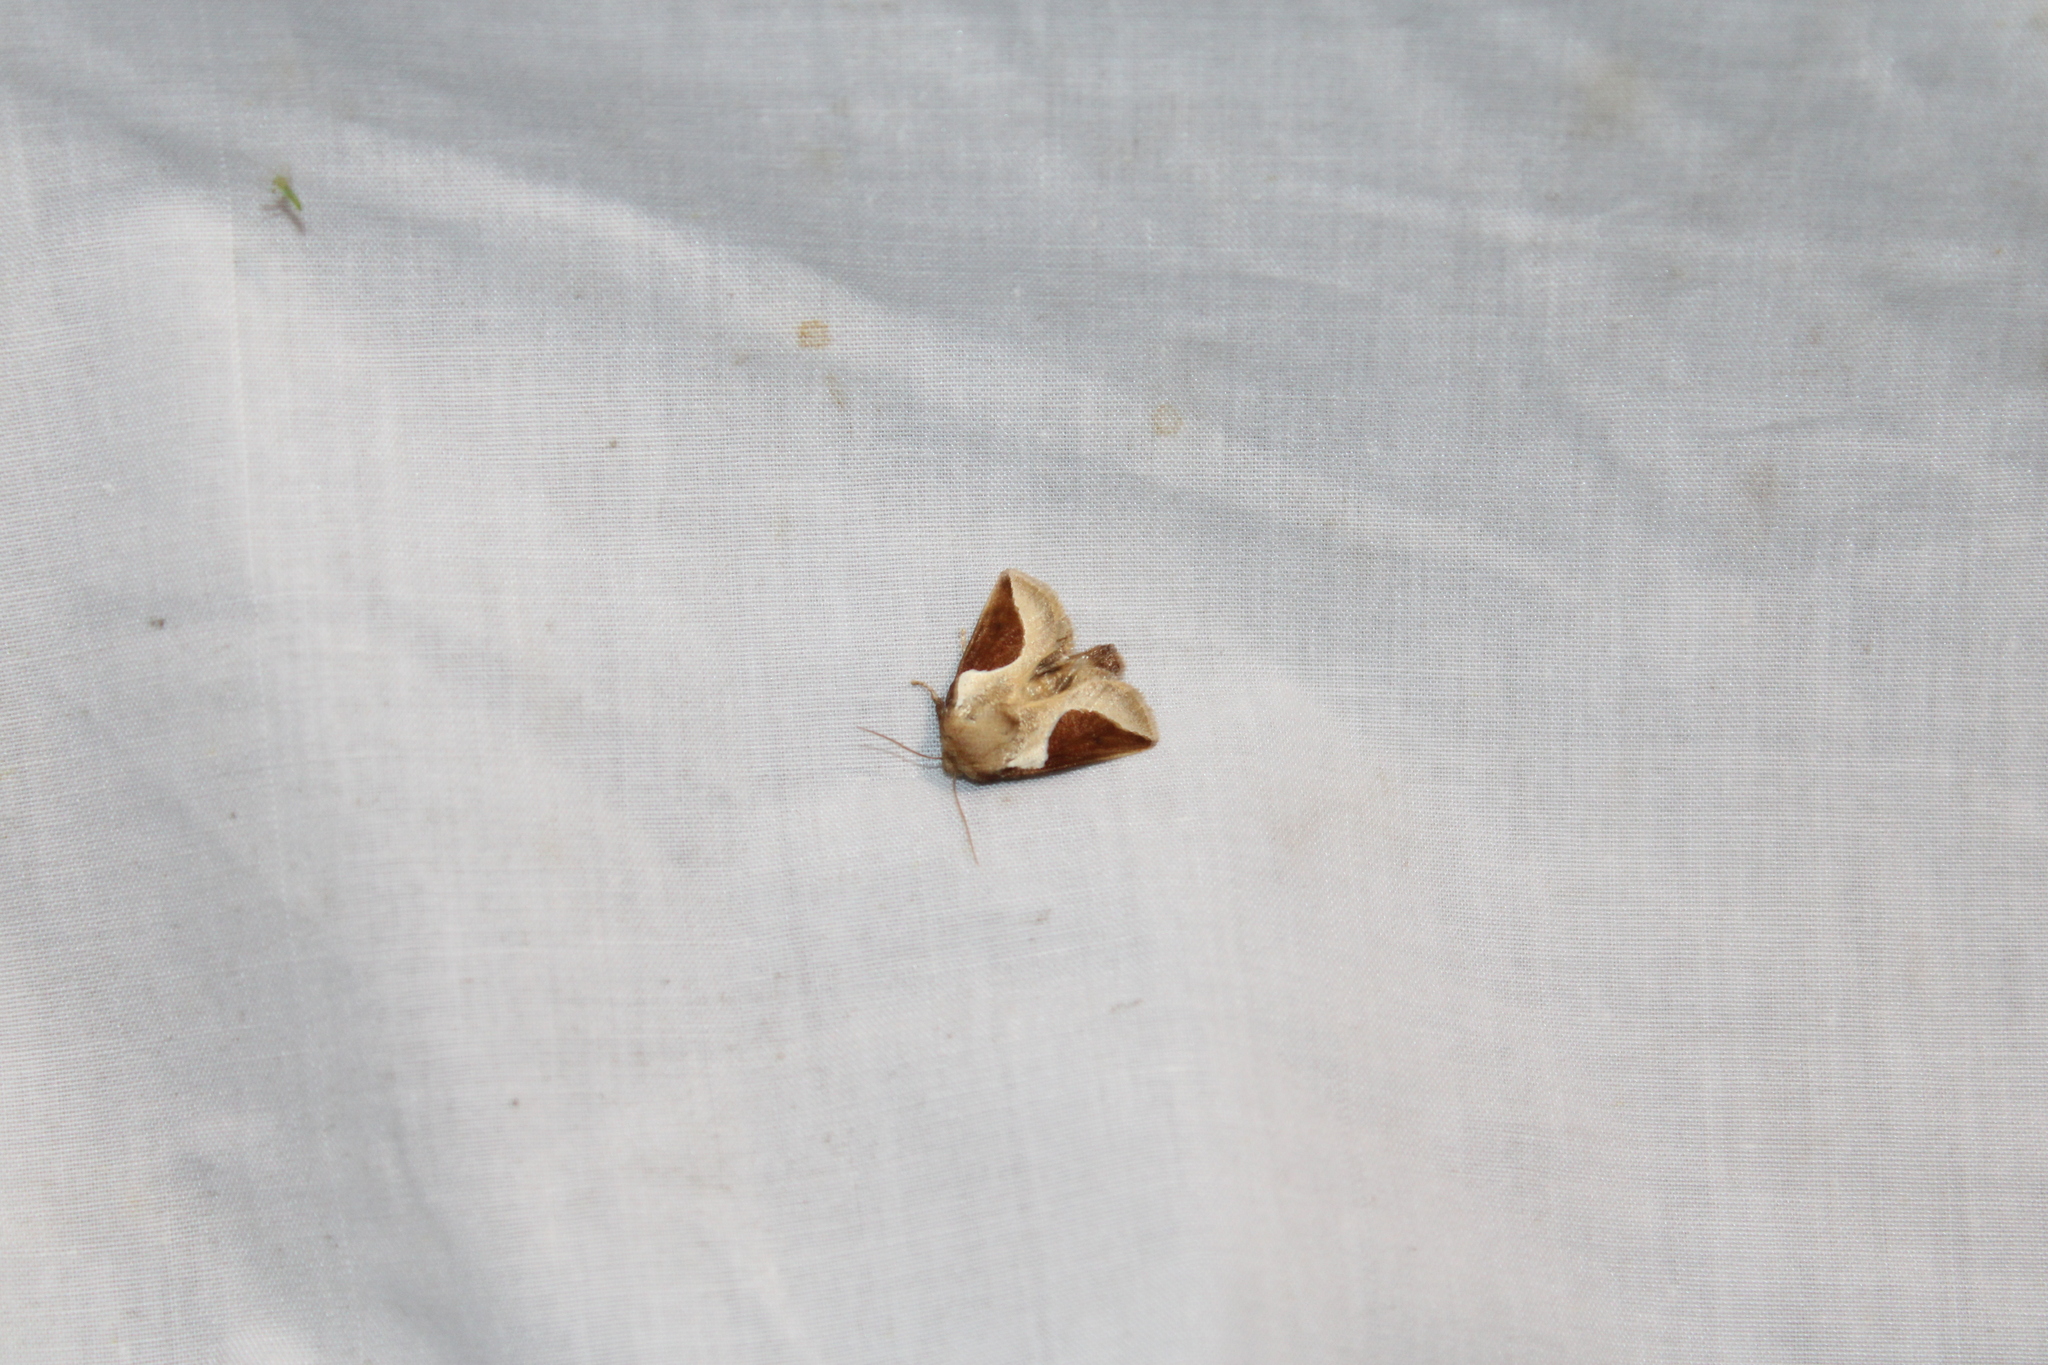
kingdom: Animalia
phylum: Arthropoda
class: Insecta
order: Lepidoptera
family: Limacodidae
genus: Prolimacodes
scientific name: Prolimacodes badia
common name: Skiff moth
